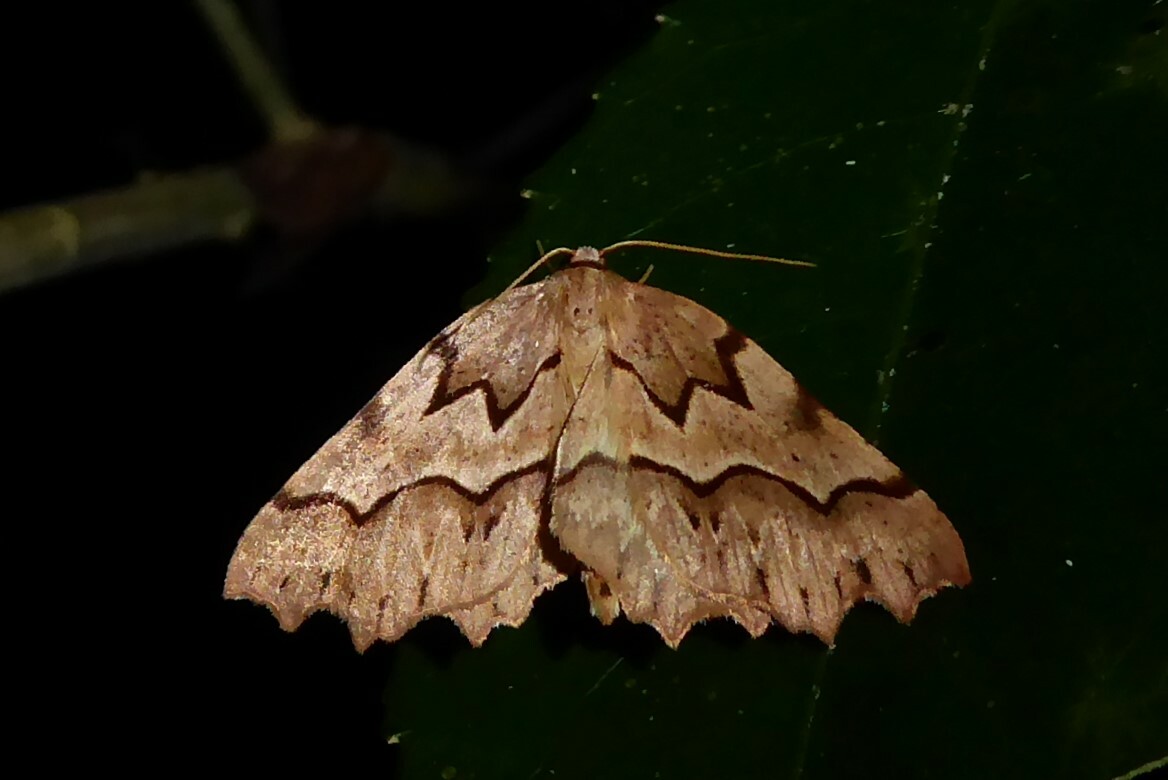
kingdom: Animalia
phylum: Arthropoda
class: Insecta
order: Lepidoptera
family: Geometridae
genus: Ischalis
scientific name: Ischalis fortinata
